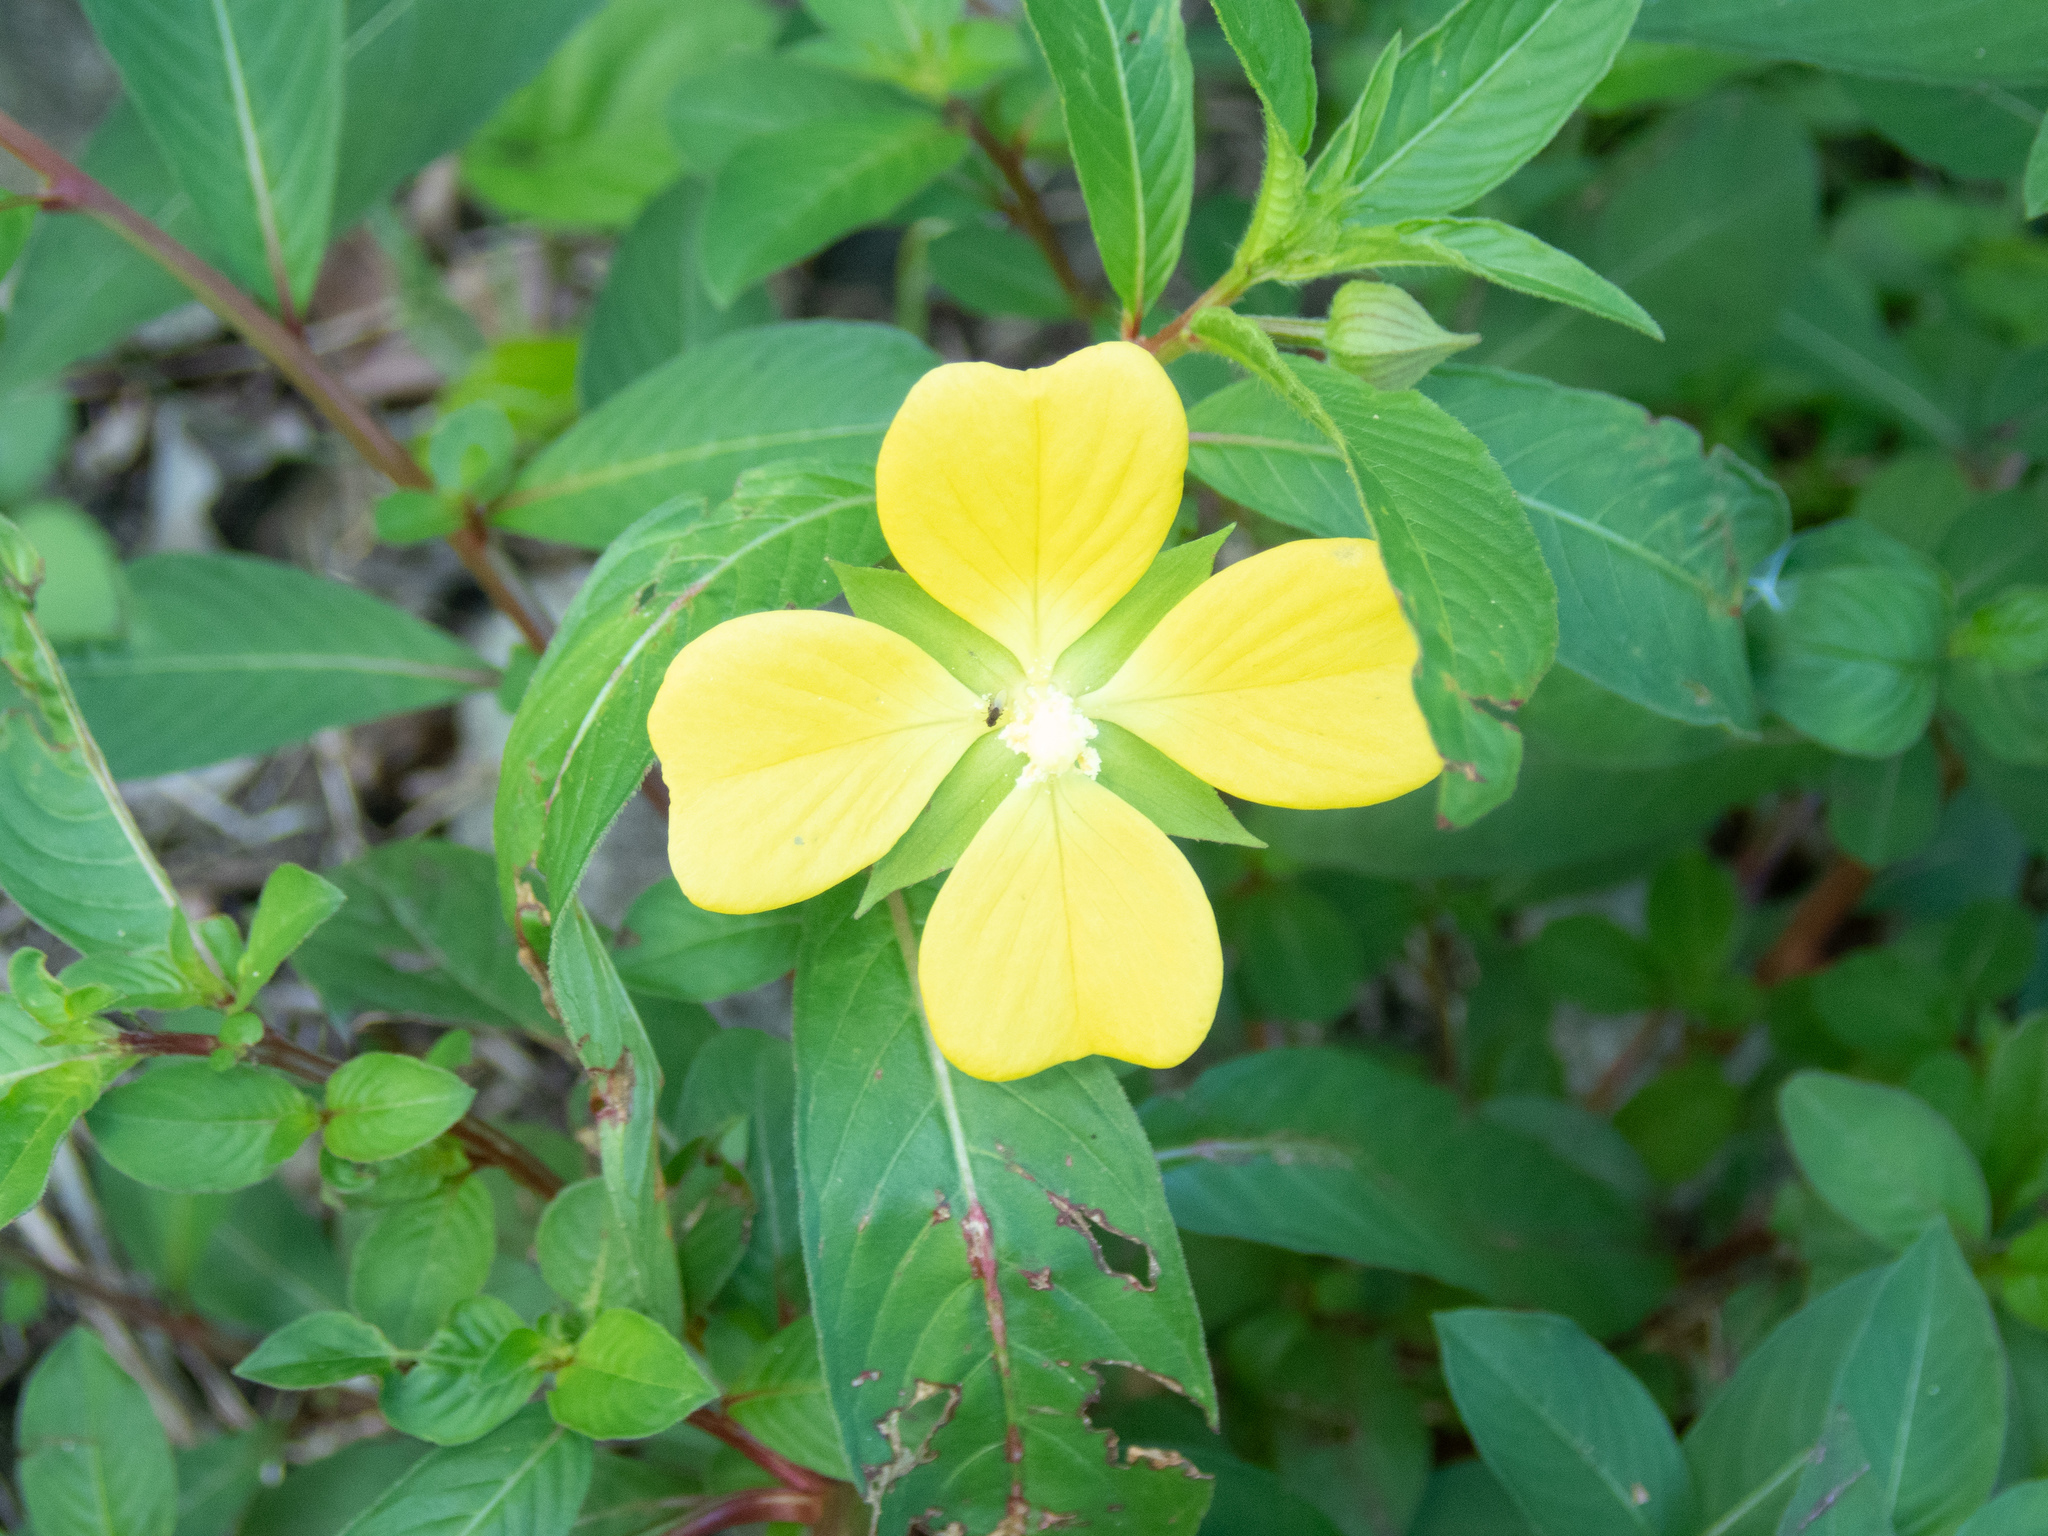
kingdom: Plantae
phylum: Tracheophyta
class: Magnoliopsida
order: Myrtales
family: Onagraceae
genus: Ludwigia
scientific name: Ludwigia octovalvis
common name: Water-primrose
